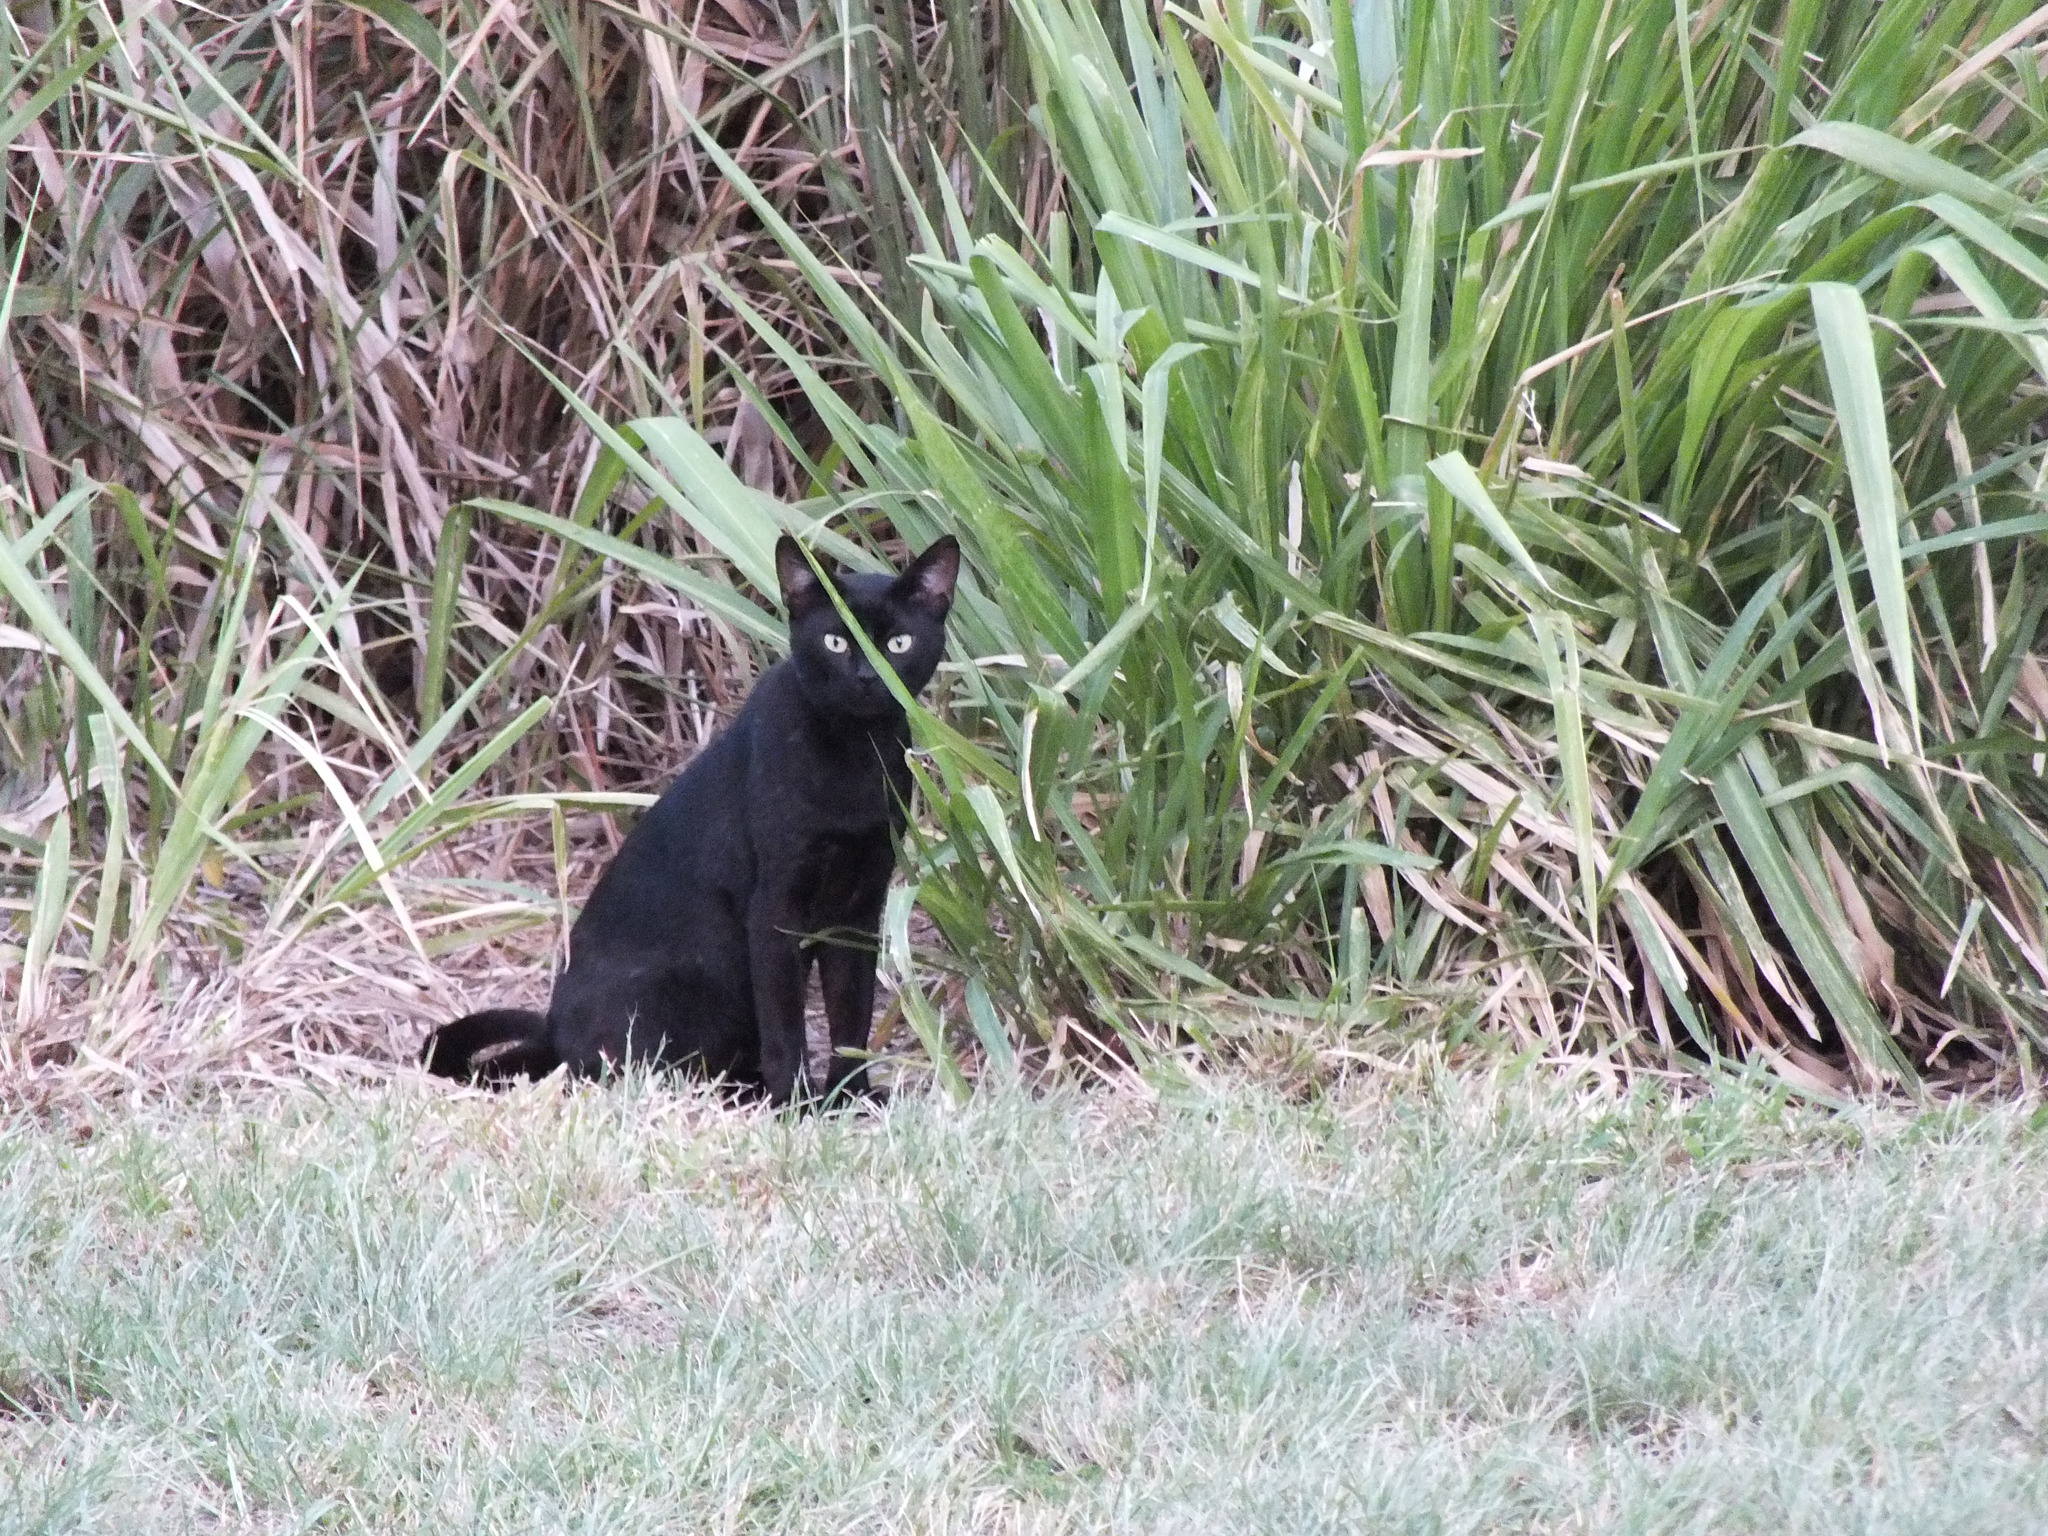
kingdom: Animalia
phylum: Chordata
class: Mammalia
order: Carnivora
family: Felidae
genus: Felis
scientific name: Felis catus
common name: Domestic cat
